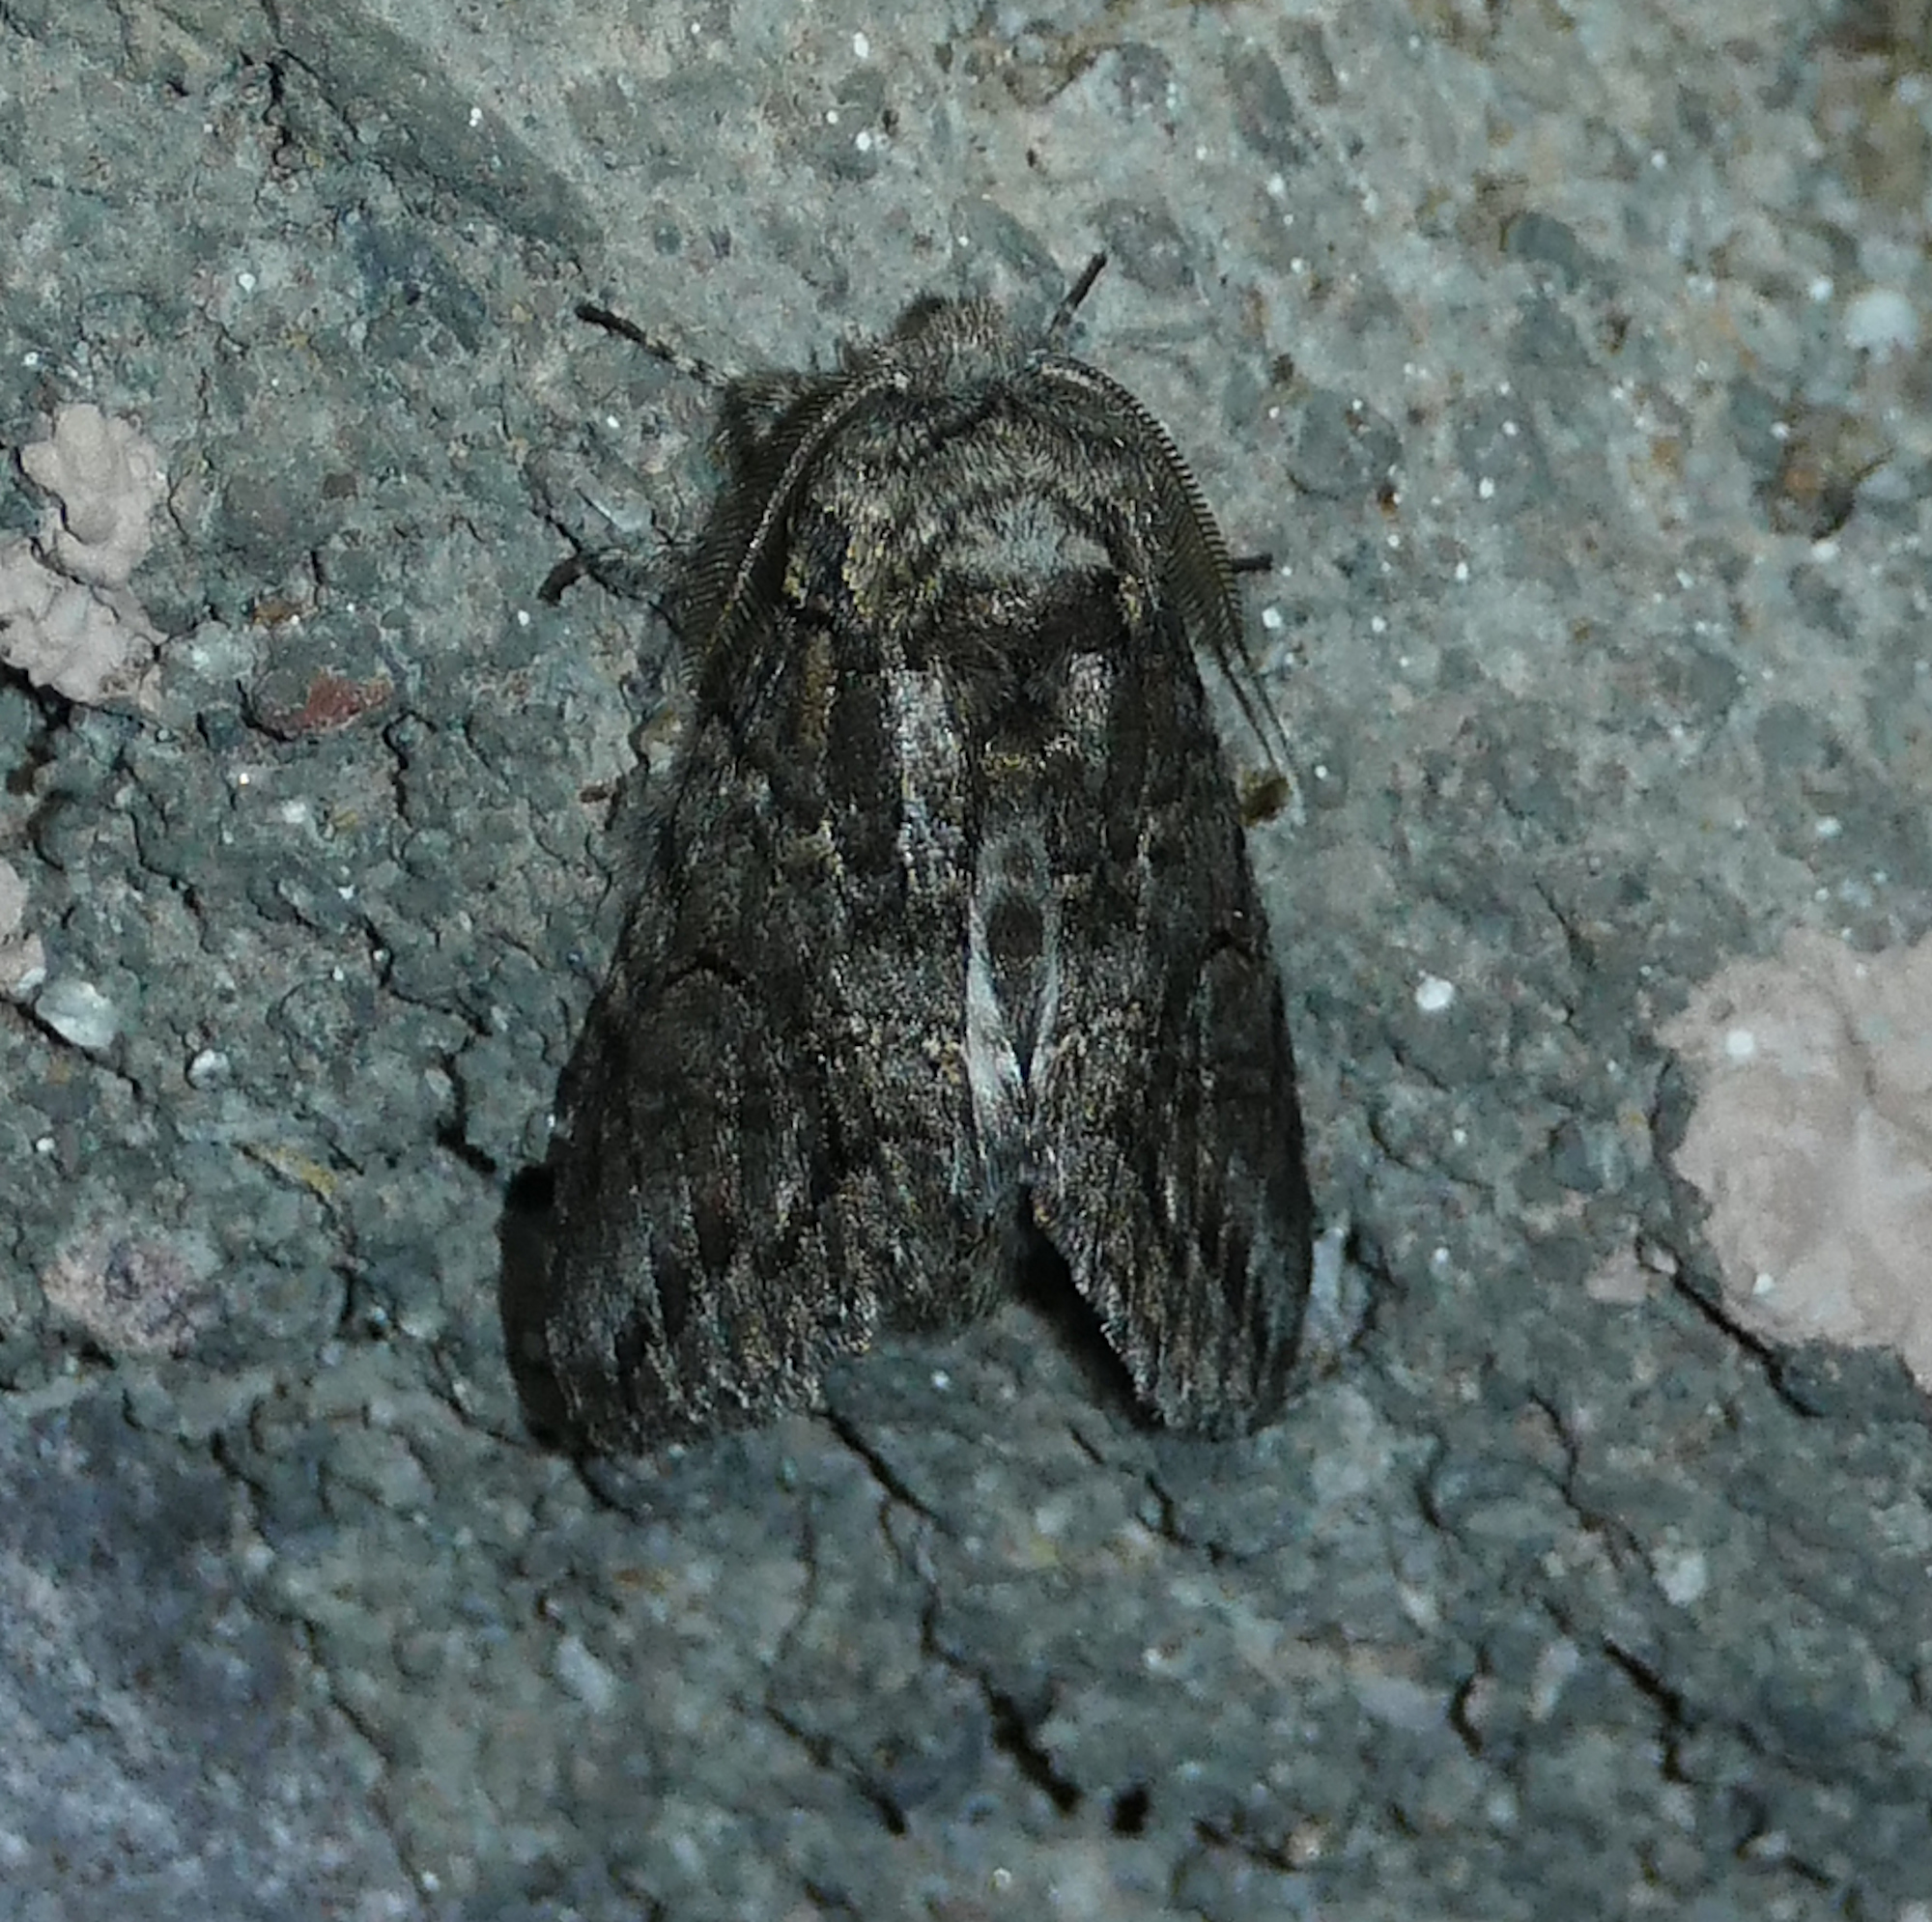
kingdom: Animalia
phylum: Arthropoda
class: Insecta
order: Lepidoptera
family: Notodontidae
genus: Heterocampa
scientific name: Heterocampa averna
